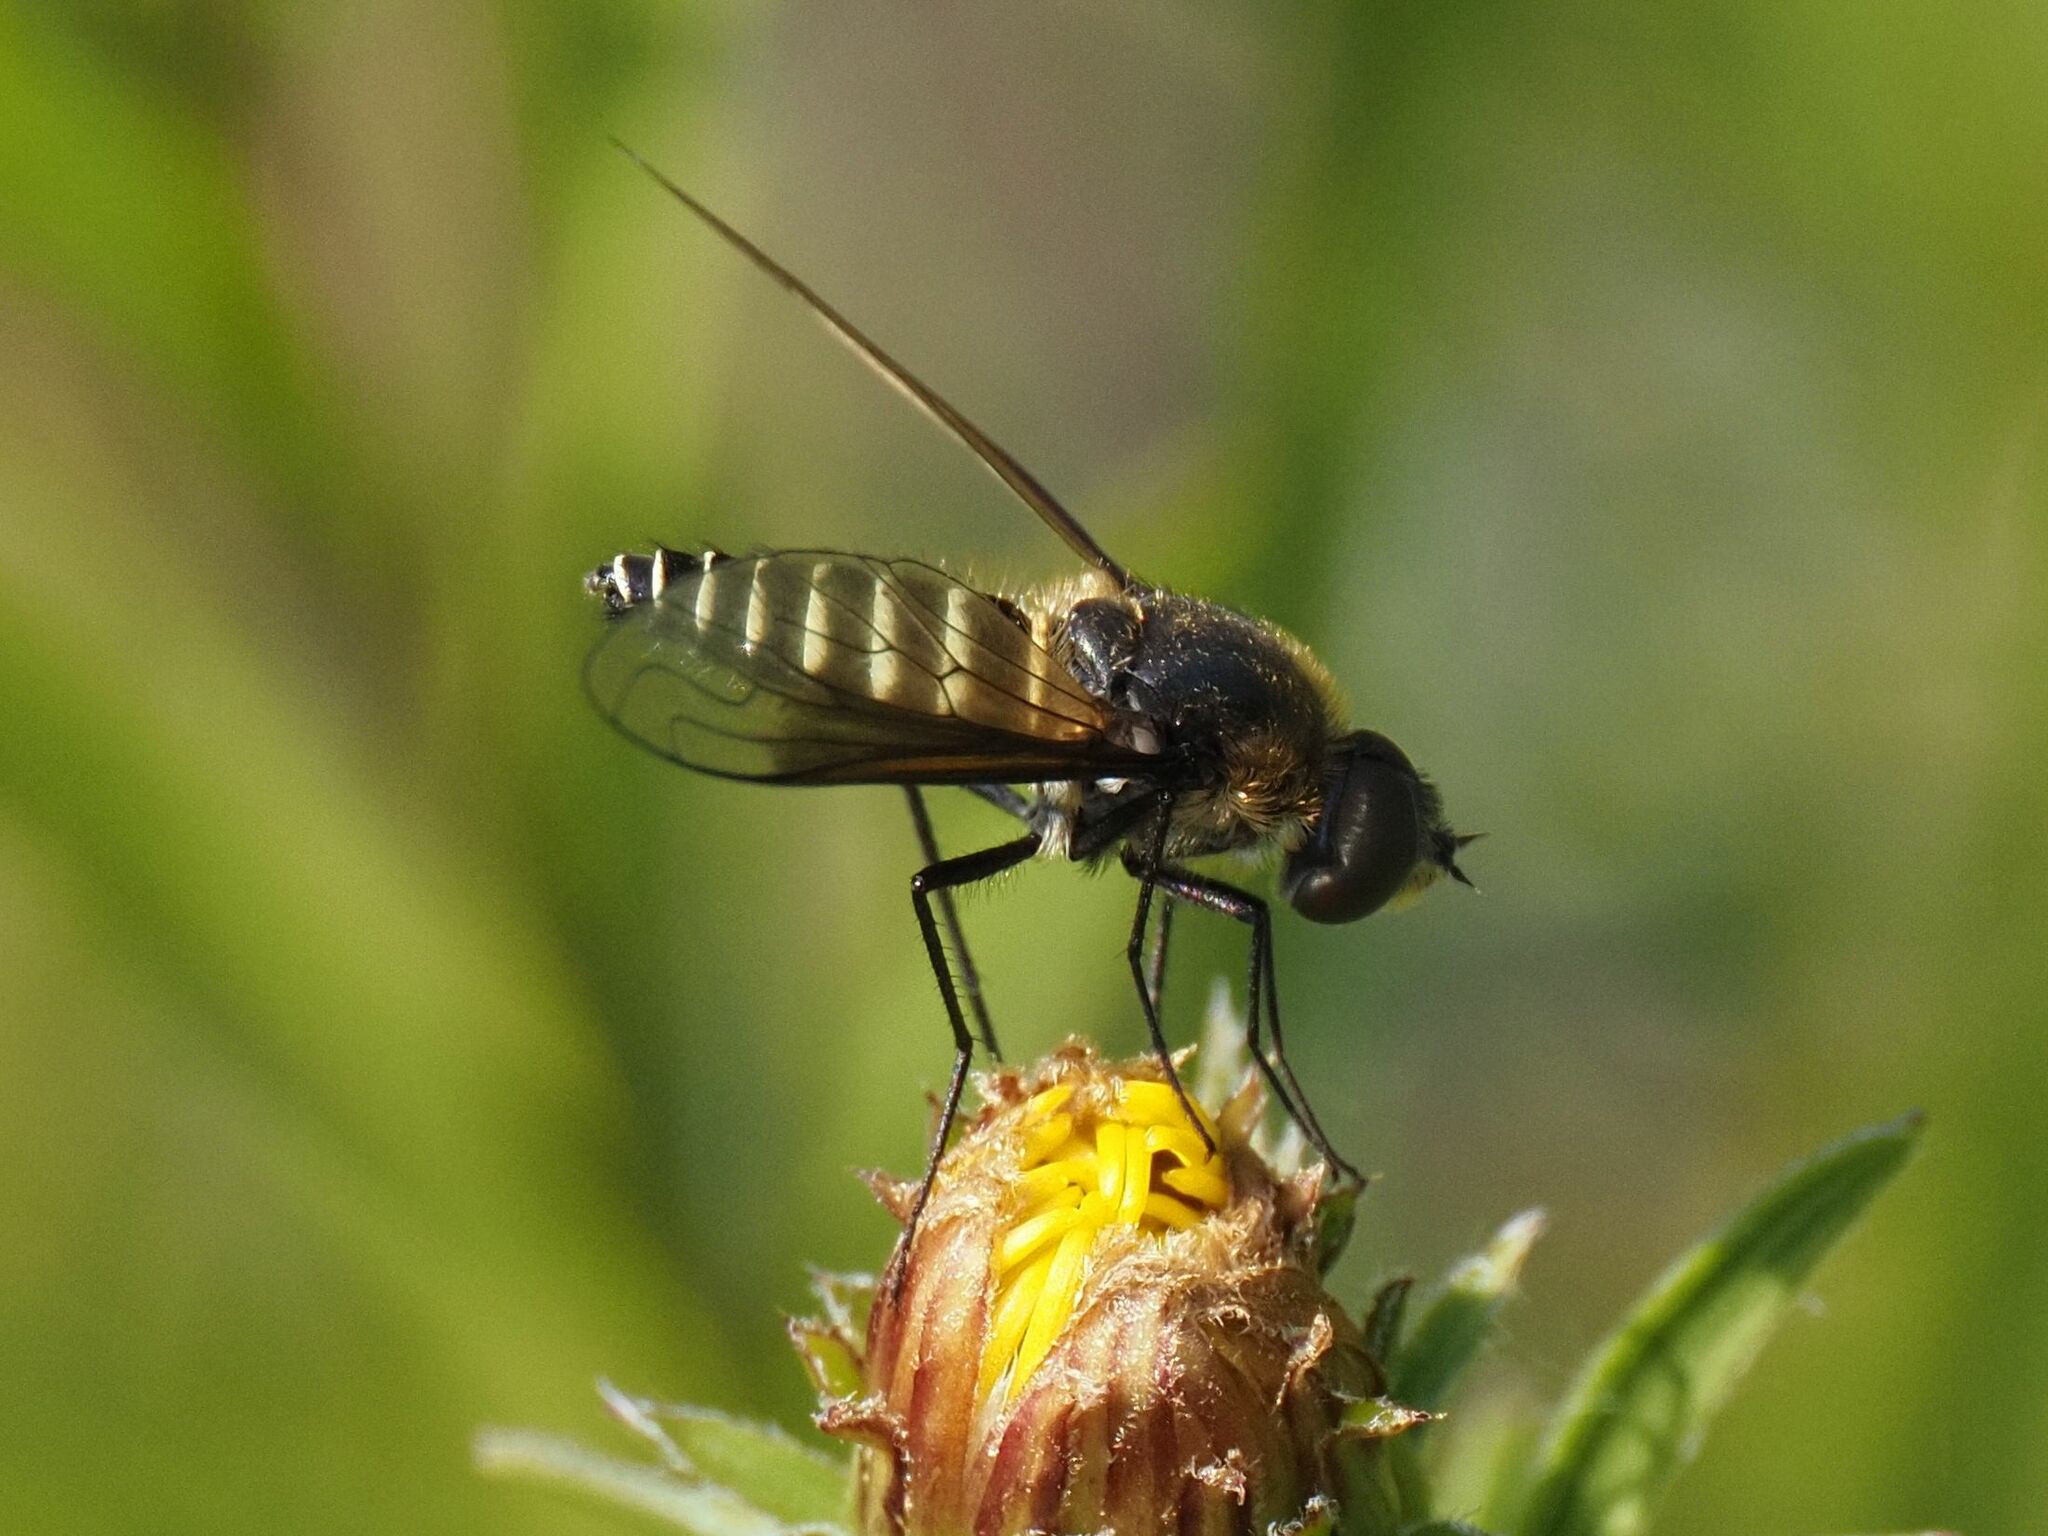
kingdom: Animalia
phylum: Arthropoda
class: Insecta
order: Diptera
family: Bombyliidae
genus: Lomatia
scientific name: Lomatia lateralis
